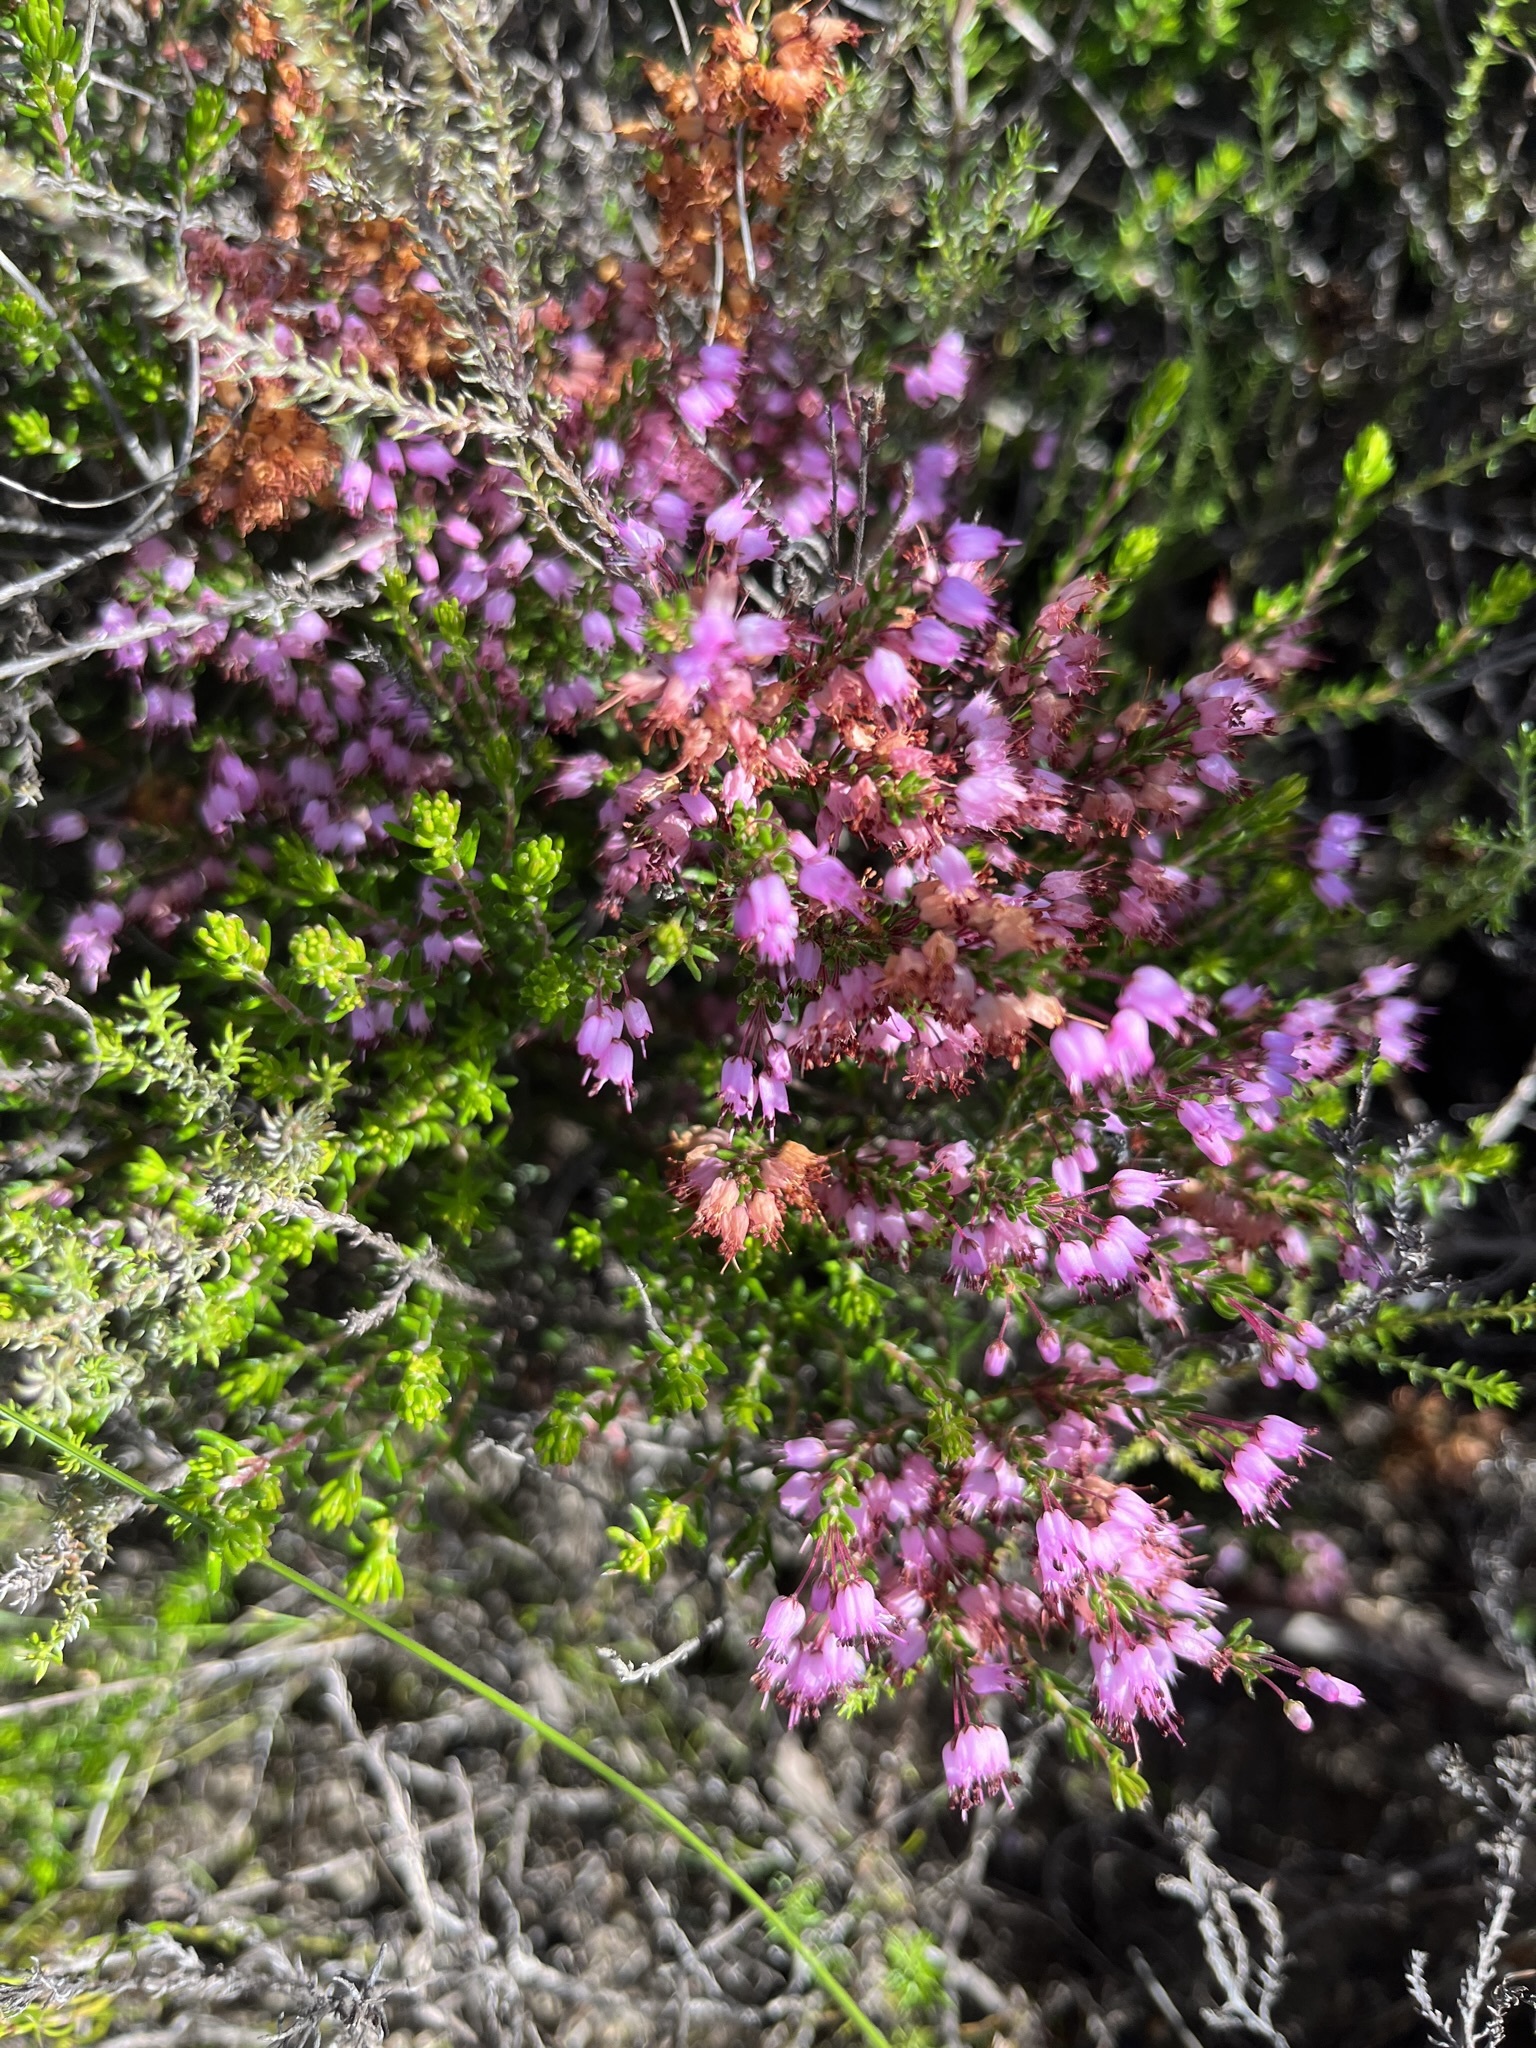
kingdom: Plantae
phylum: Tracheophyta
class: Magnoliopsida
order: Ericales
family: Ericaceae
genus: Erica
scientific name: Erica nudiflora
